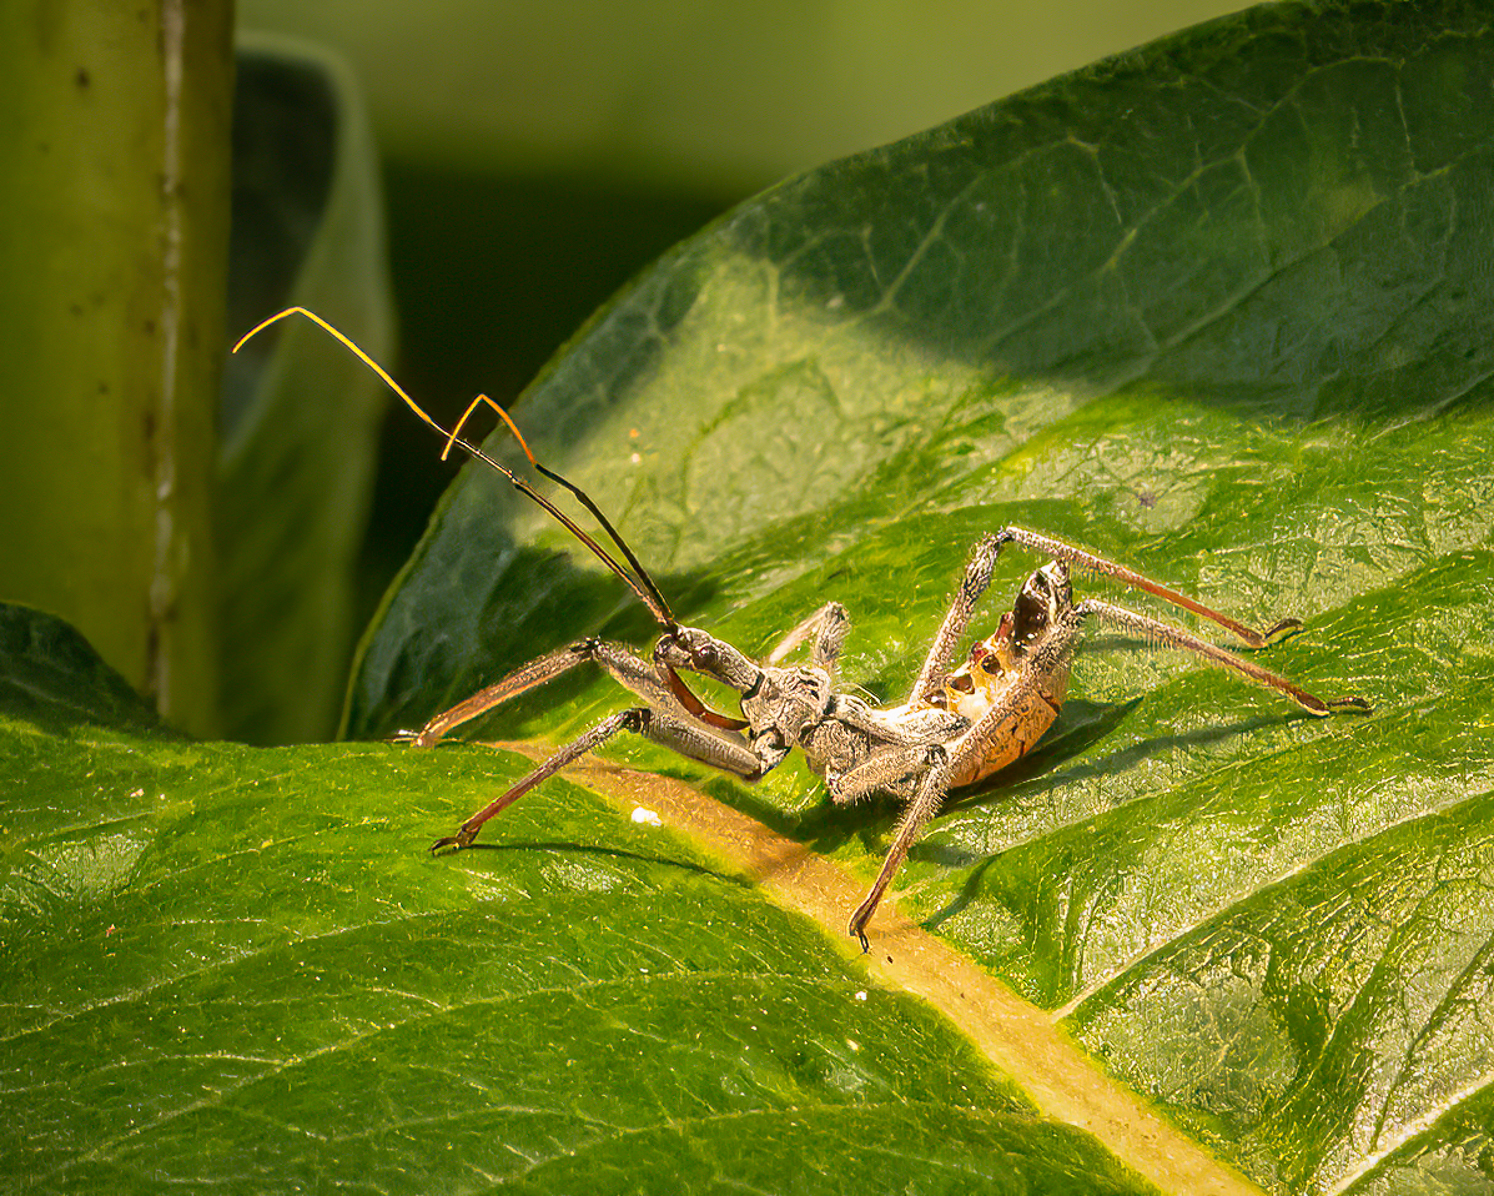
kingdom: Animalia
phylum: Arthropoda
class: Insecta
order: Hemiptera
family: Reduviidae
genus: Arilus
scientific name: Arilus cristatus
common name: North american wheel bug
